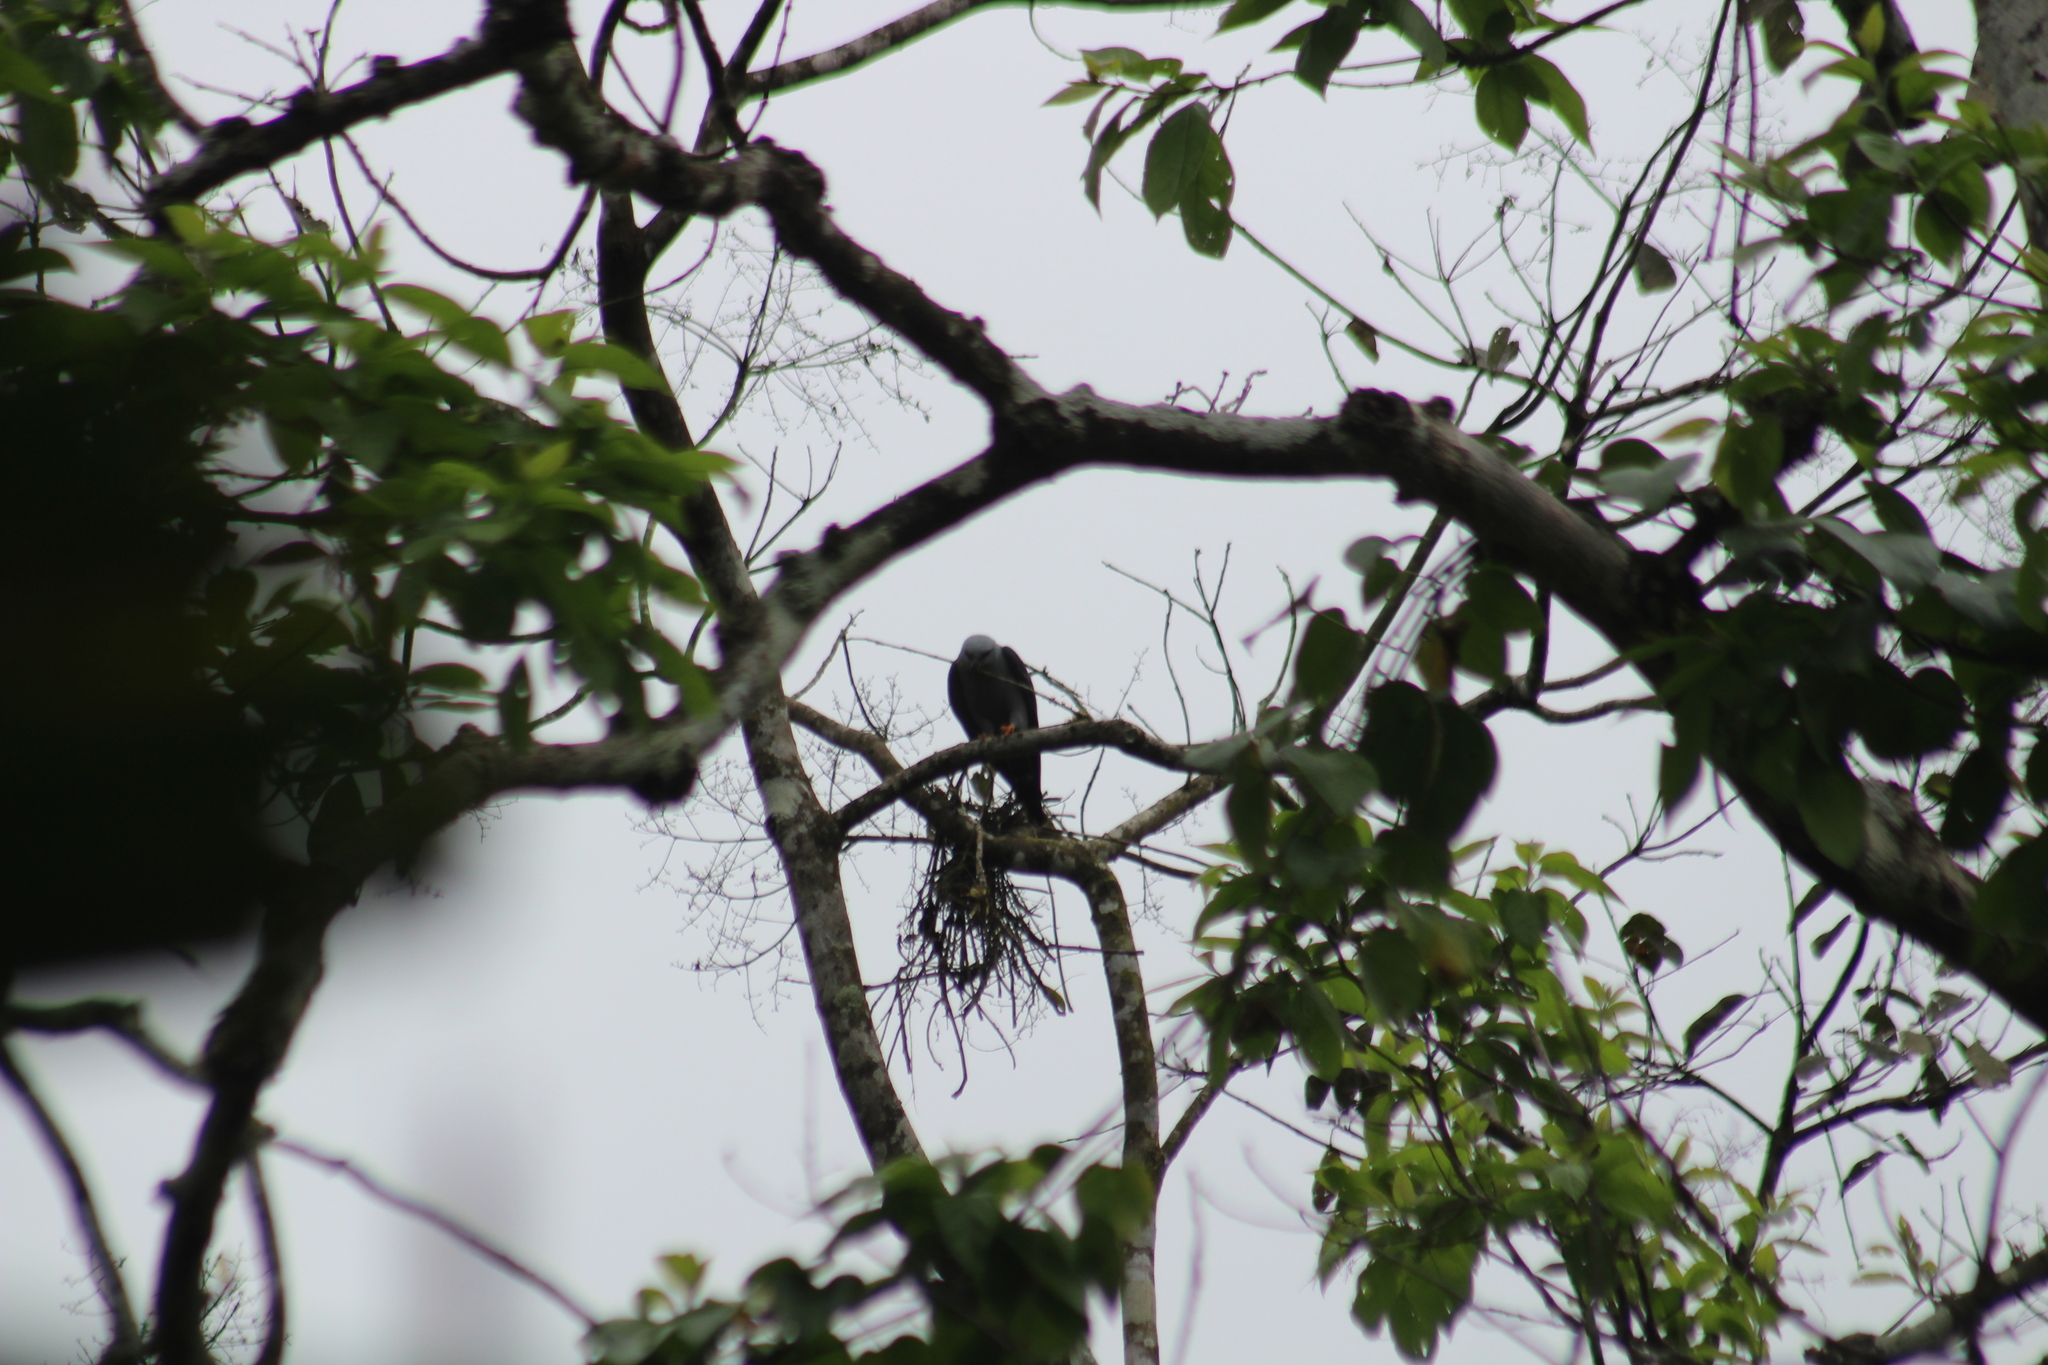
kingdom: Animalia
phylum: Chordata
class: Aves
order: Accipitriformes
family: Accipitridae
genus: Ictinia
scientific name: Ictinia plumbea
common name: Plumbeous kite
